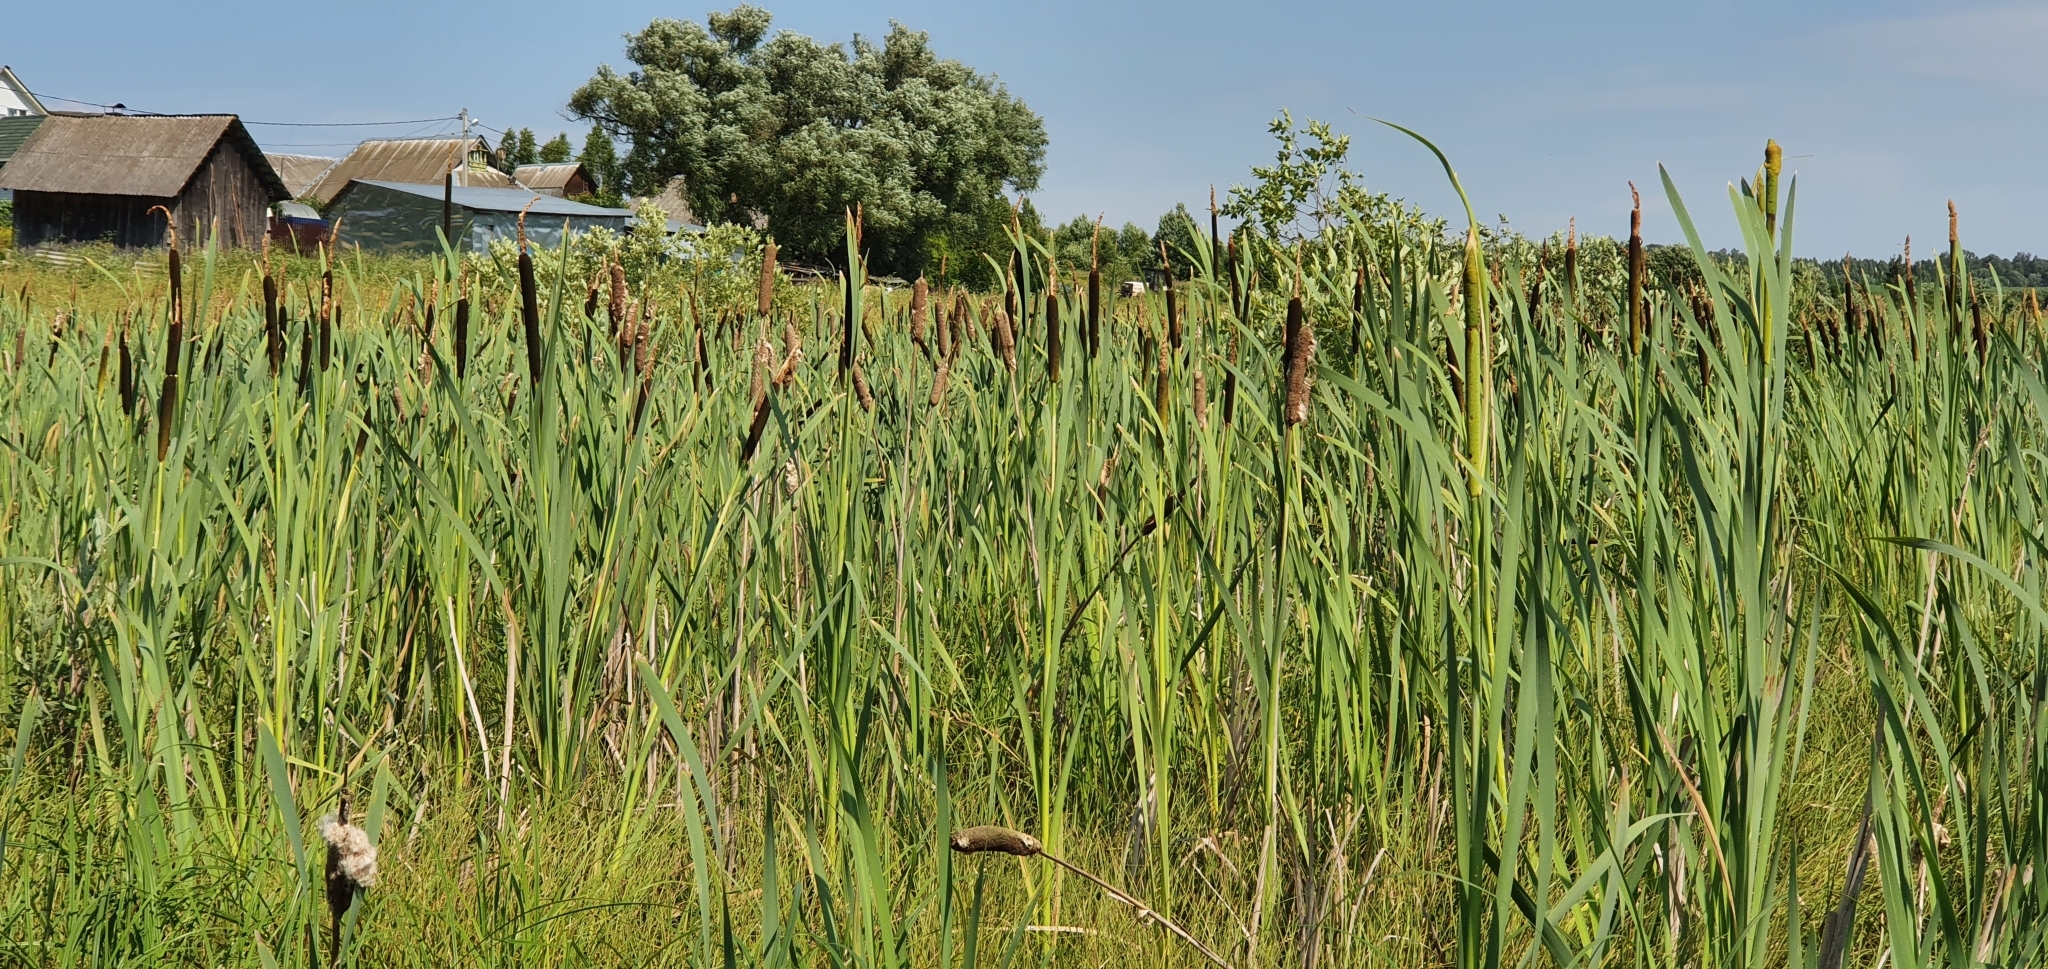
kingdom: Plantae
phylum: Tracheophyta
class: Liliopsida
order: Poales
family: Typhaceae
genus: Typha
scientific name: Typha latifolia
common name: Broadleaf cattail
